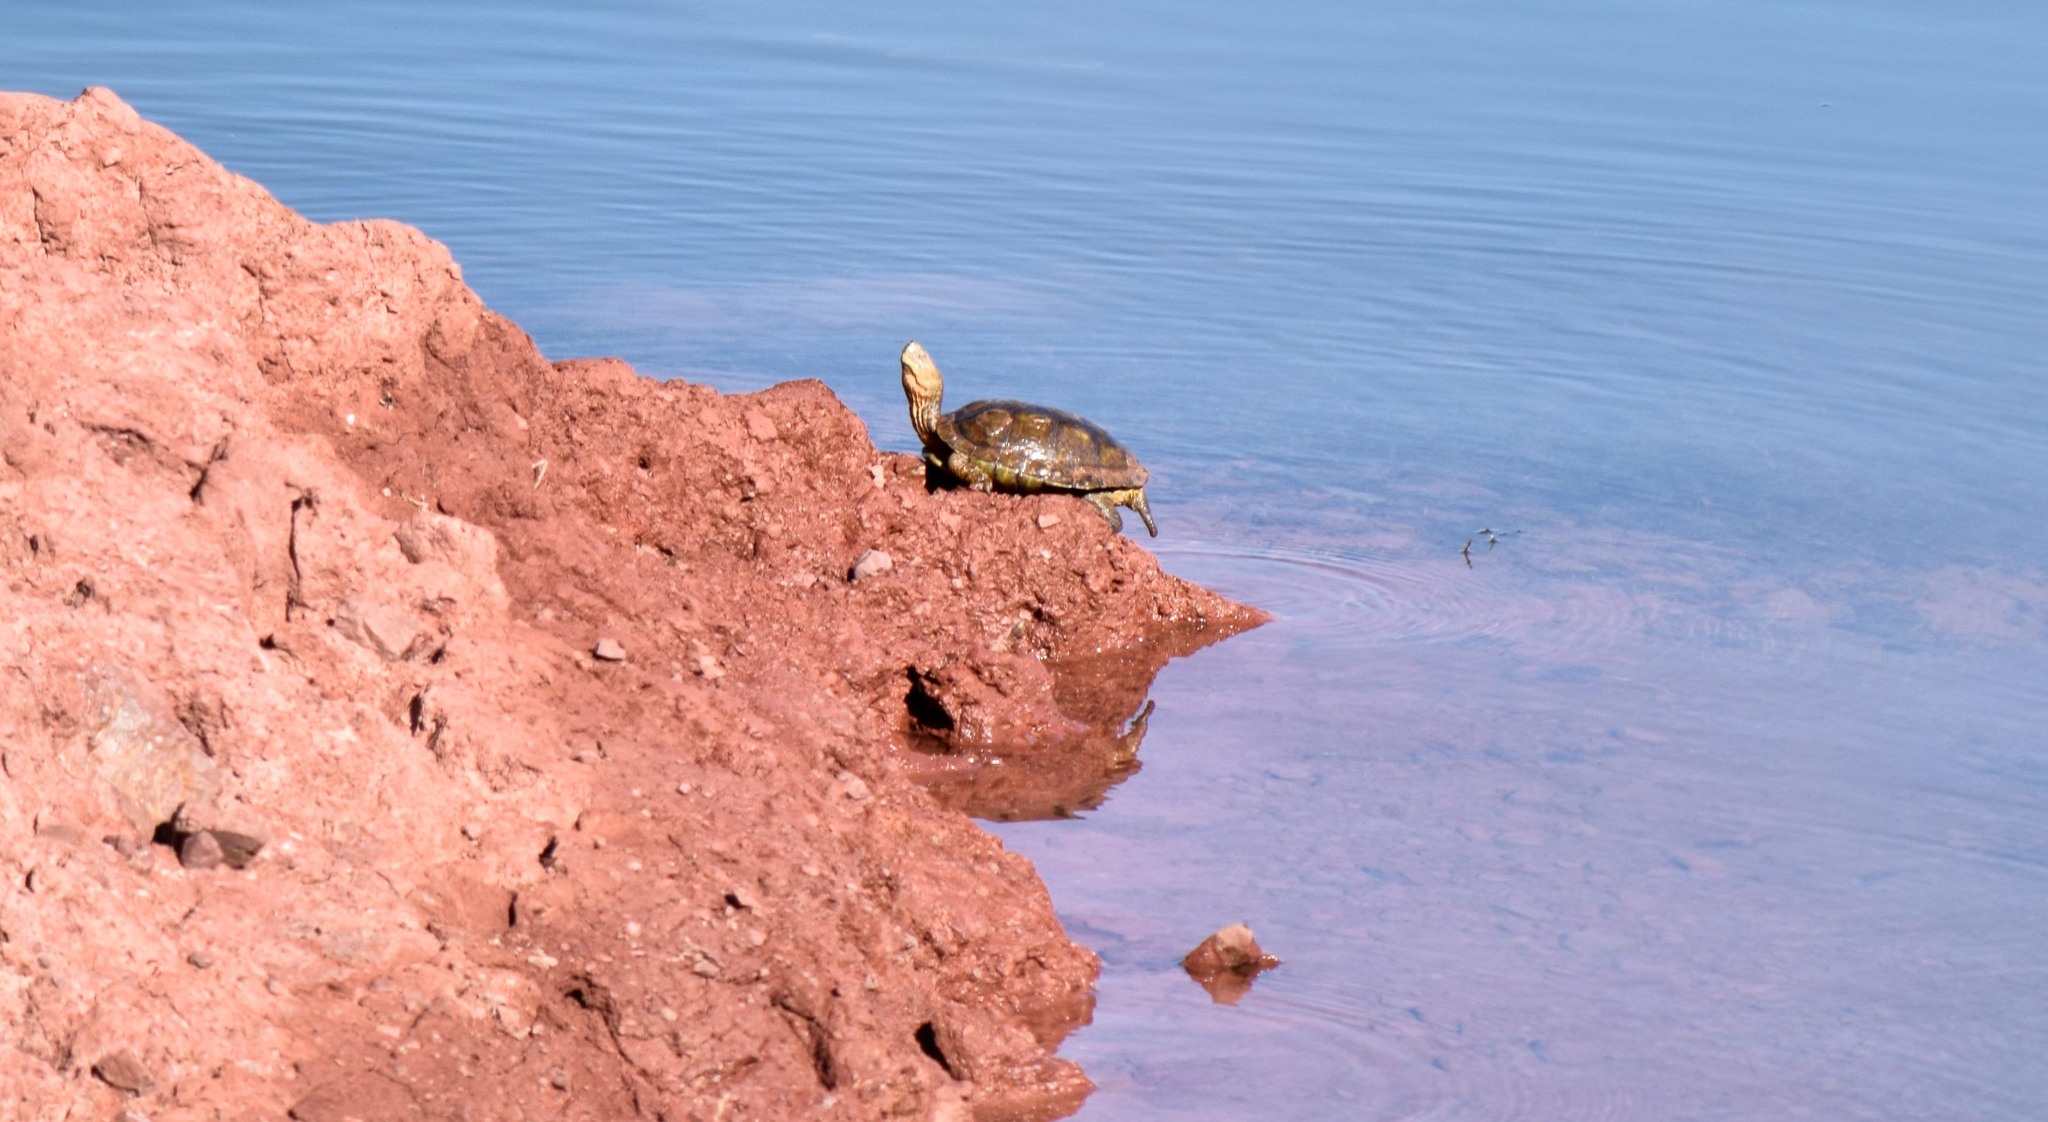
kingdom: Animalia
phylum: Chordata
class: Testudines
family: Geoemydidae
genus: Mauremys
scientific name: Mauremys leprosa
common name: Mediterranean pond turtle
